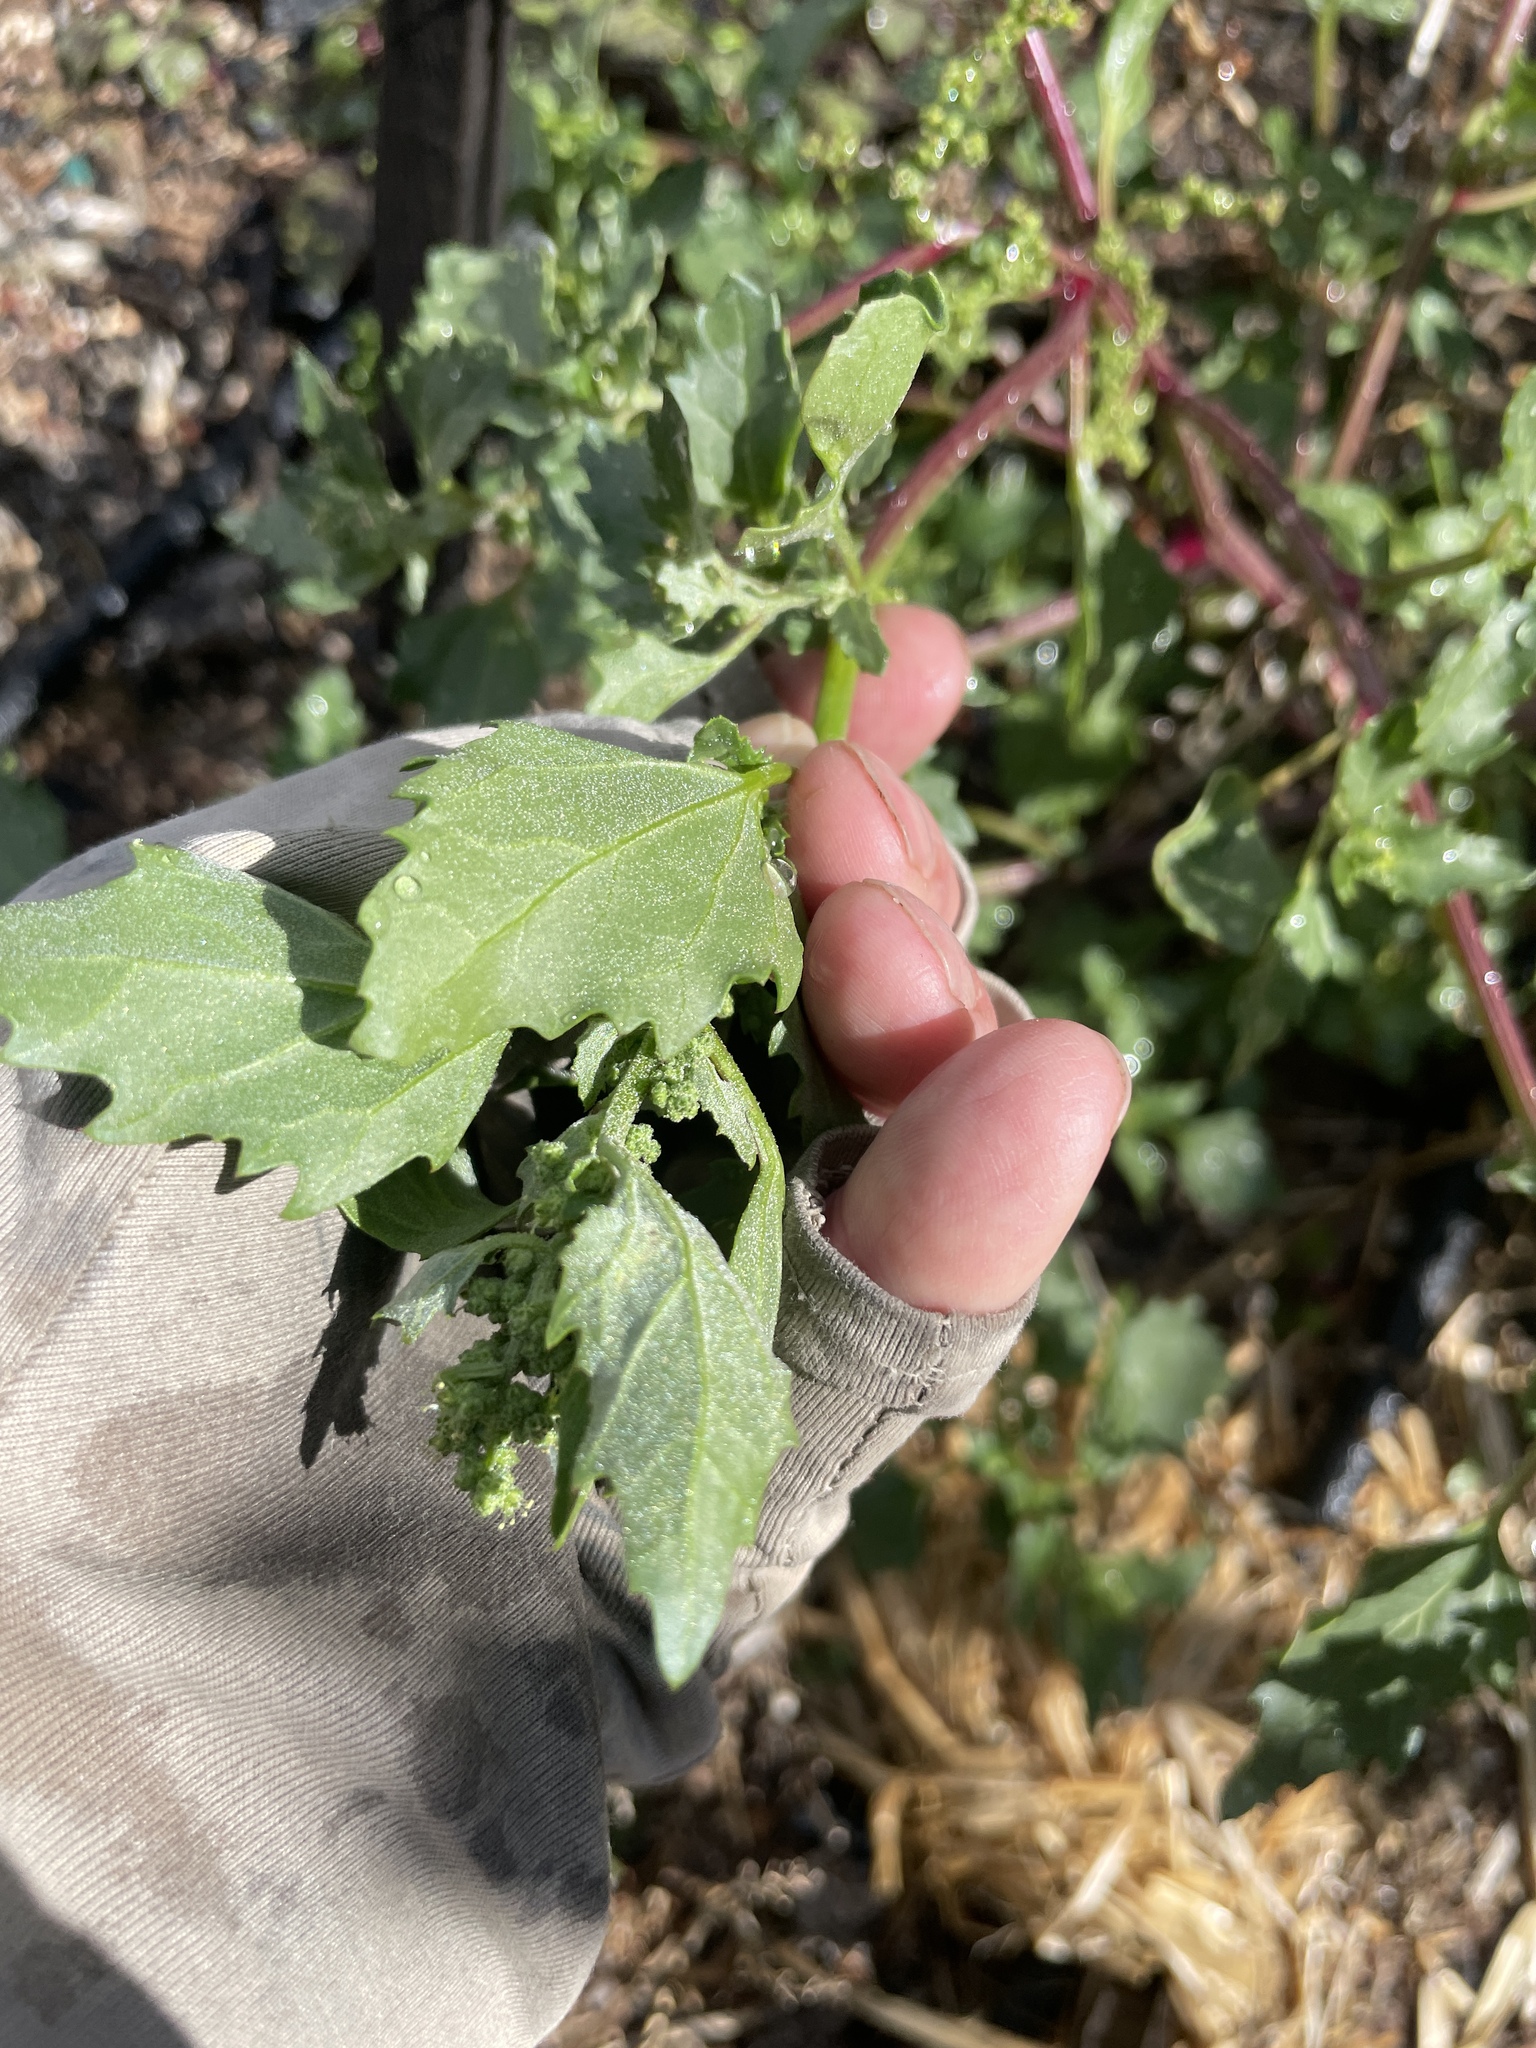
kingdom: Plantae
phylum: Tracheophyta
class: Magnoliopsida
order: Caryophyllales
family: Amaranthaceae
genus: Chenopodiastrum
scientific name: Chenopodiastrum murale
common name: Sowbane
